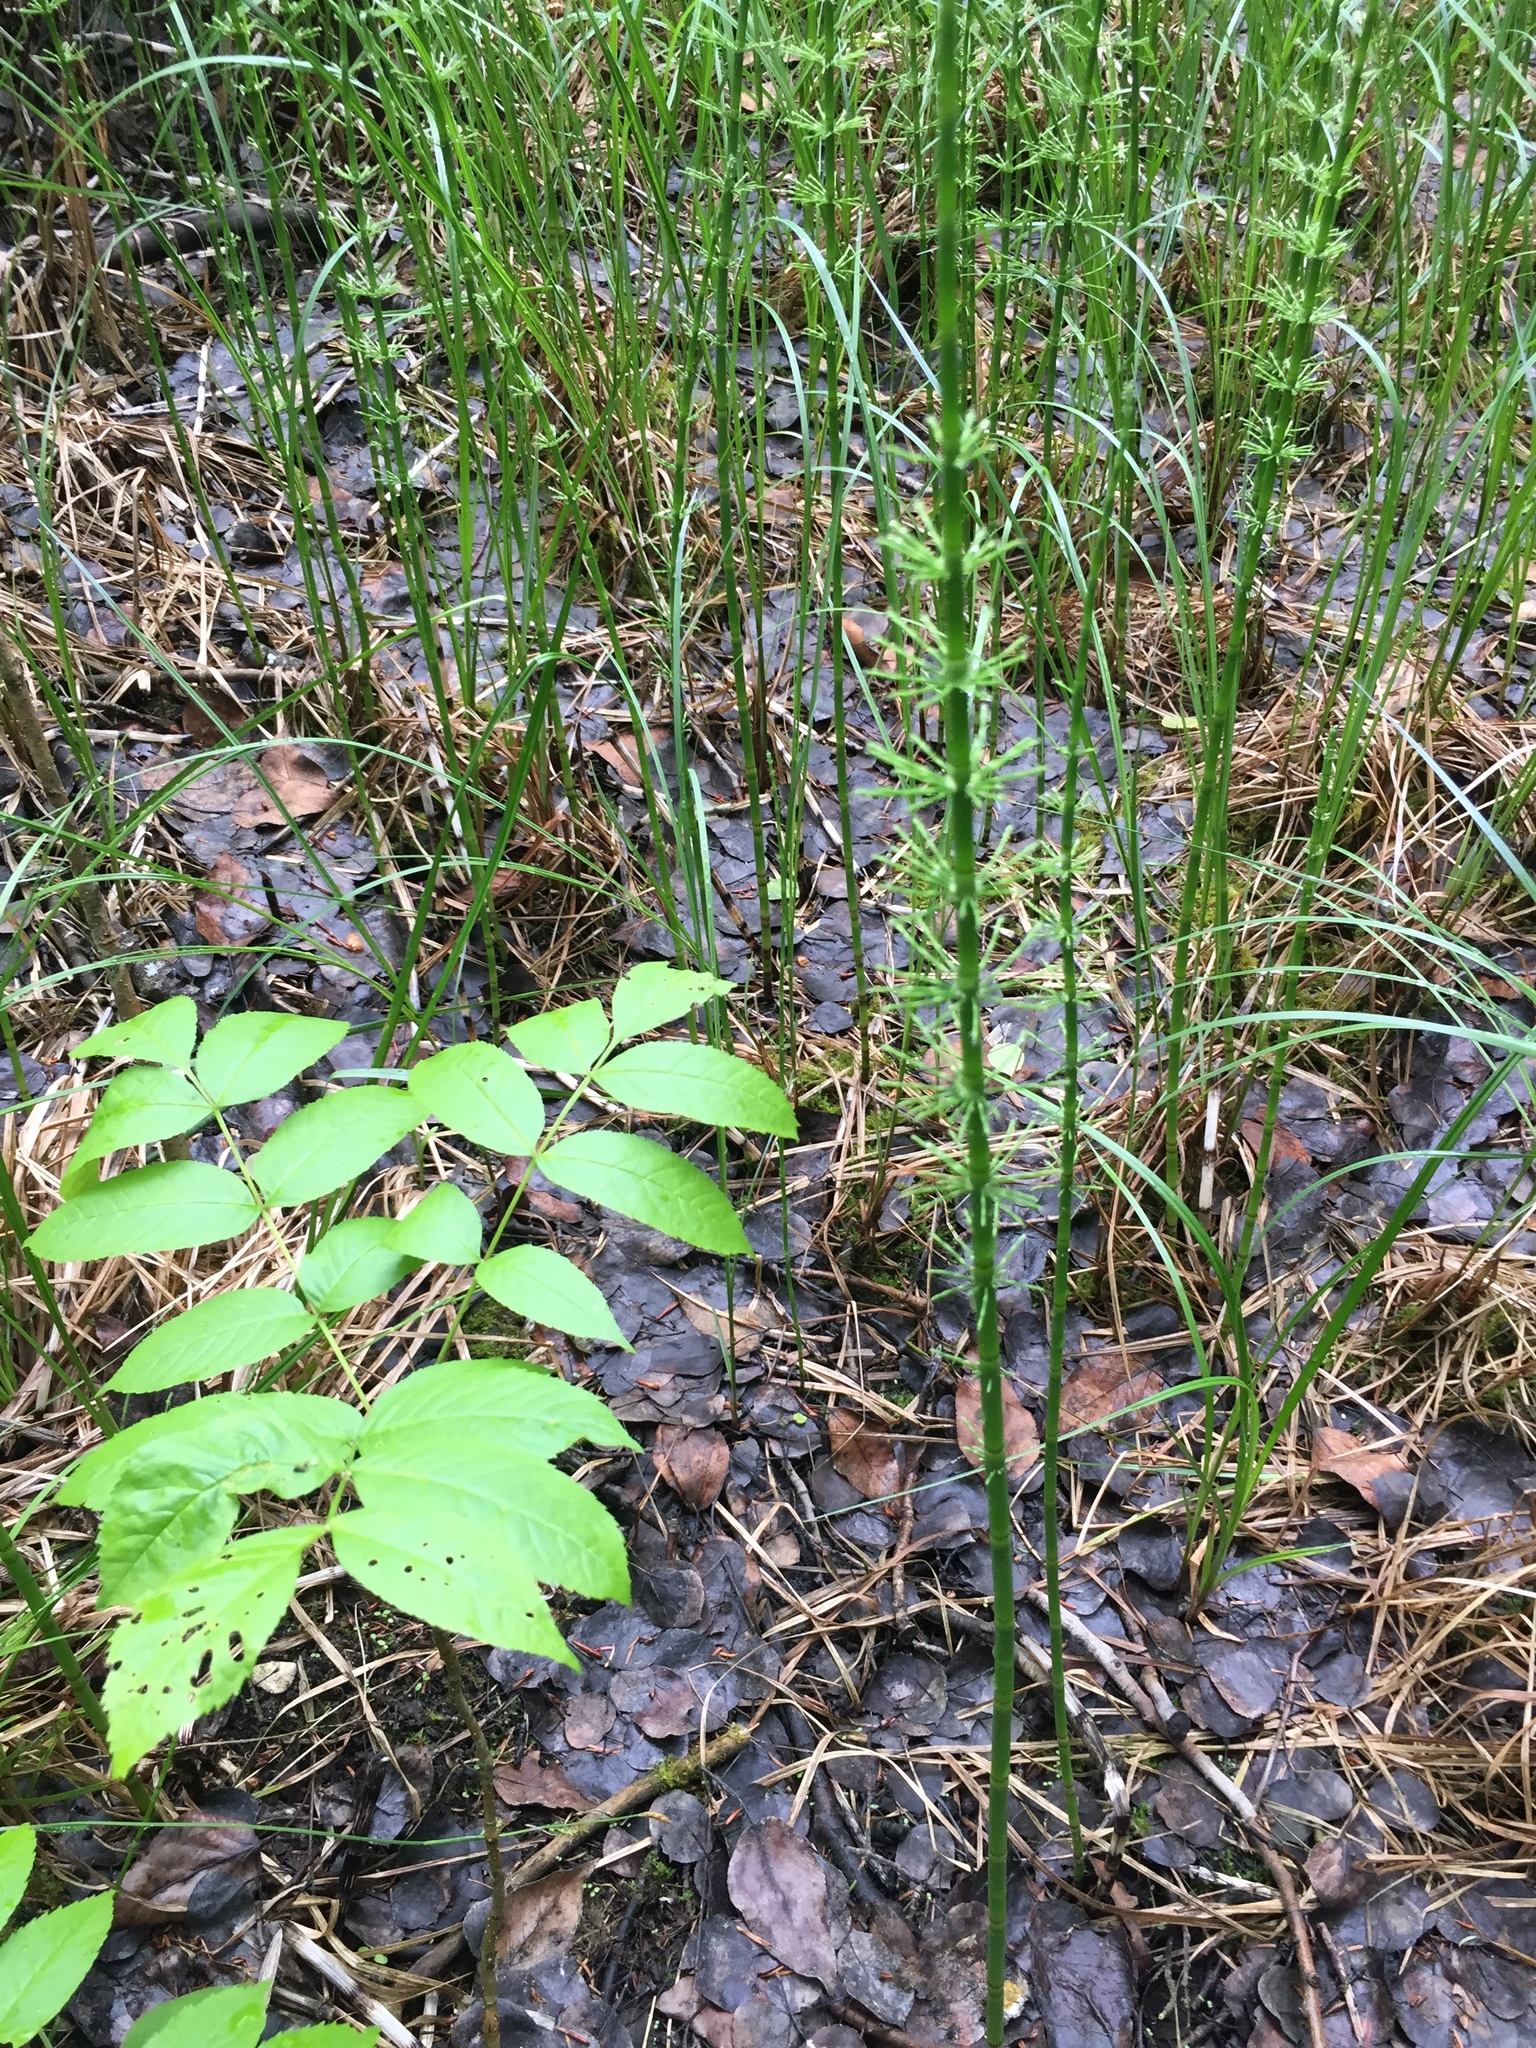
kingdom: Plantae
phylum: Tracheophyta
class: Polypodiopsida
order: Equisetales
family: Equisetaceae
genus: Equisetum
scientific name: Equisetum fluviatile
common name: Water horsetail
